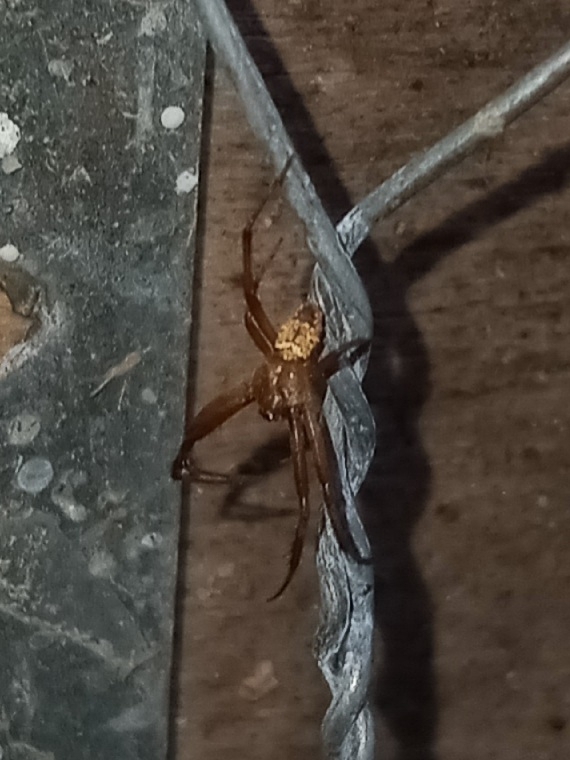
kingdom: Animalia
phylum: Arthropoda
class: Arachnida
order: Araneae
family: Araneidae
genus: Gea
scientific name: Gea heptagon
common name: Orb weavers
